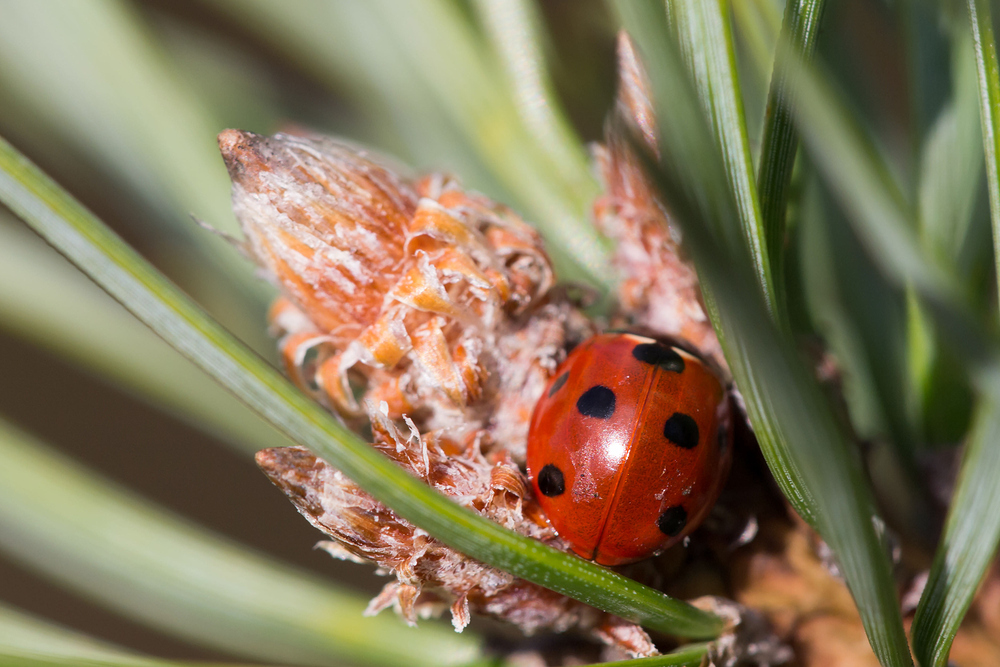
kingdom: Animalia
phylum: Arthropoda
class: Insecta
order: Coleoptera
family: Coccinellidae
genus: Coccinella
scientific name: Coccinella septempunctata
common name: Sevenspotted lady beetle
